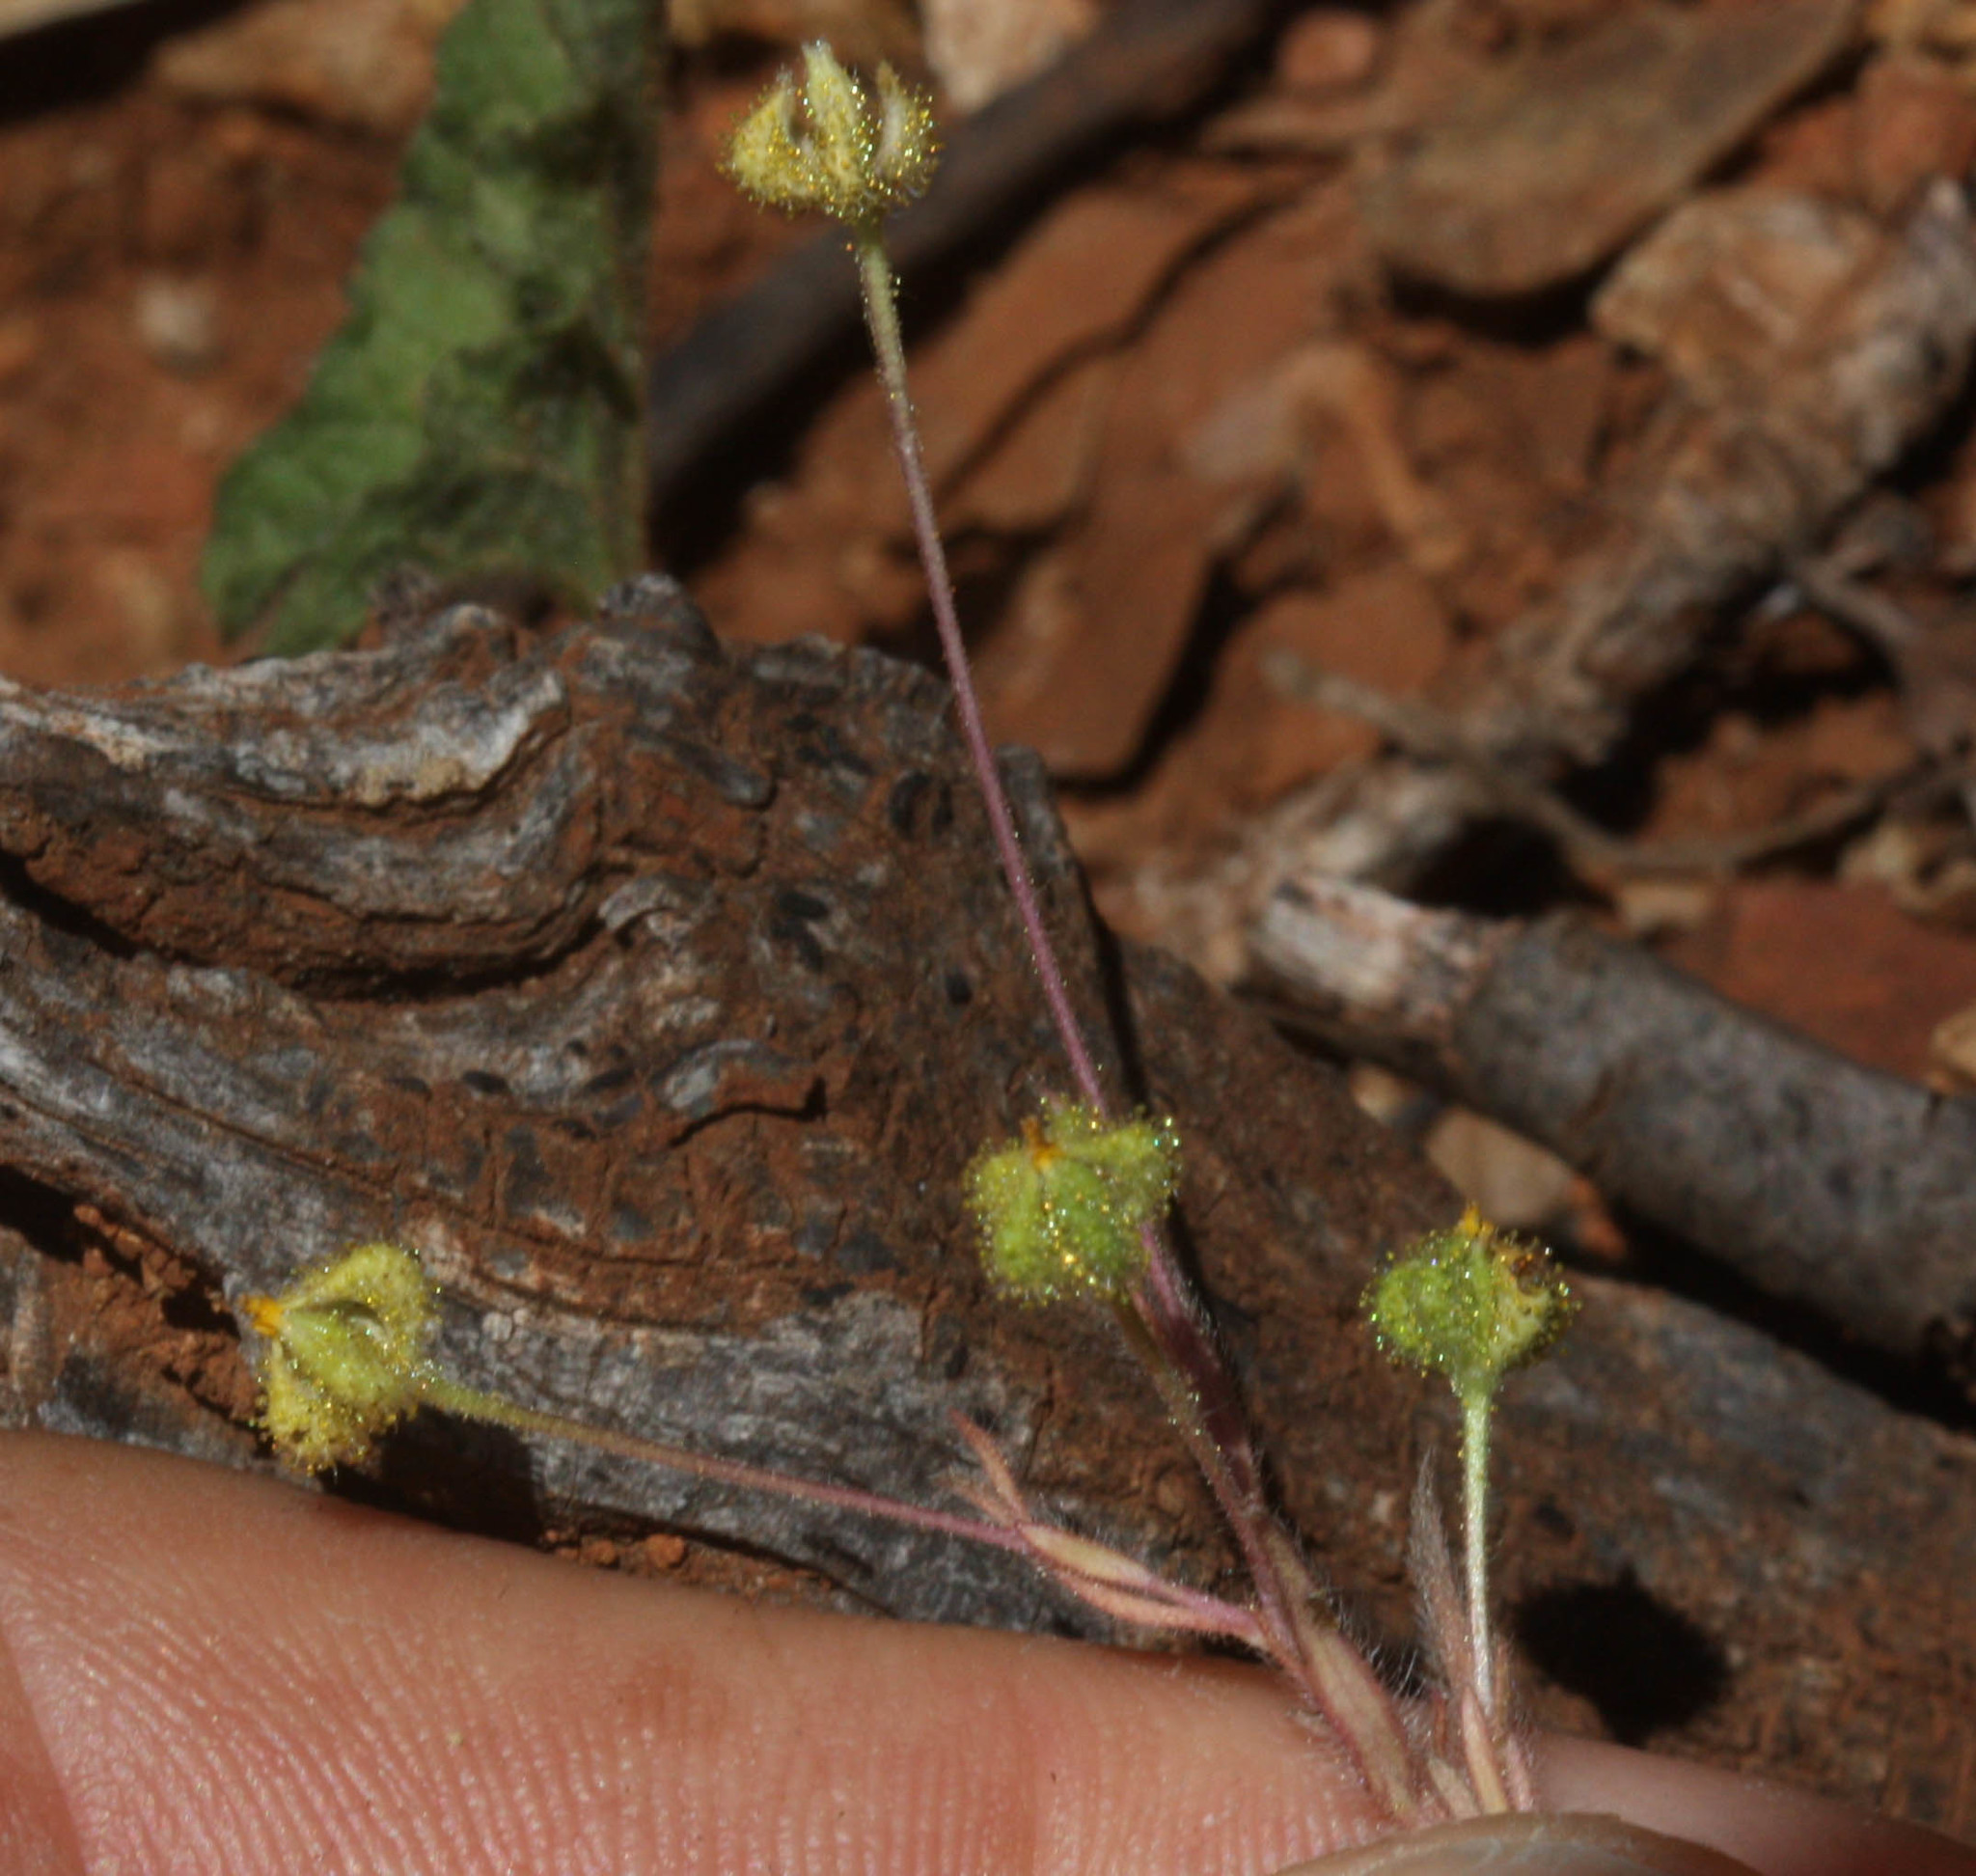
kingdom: Plantae
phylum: Tracheophyta
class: Magnoliopsida
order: Asterales
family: Asteraceae
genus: Madia
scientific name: Madia exigua
